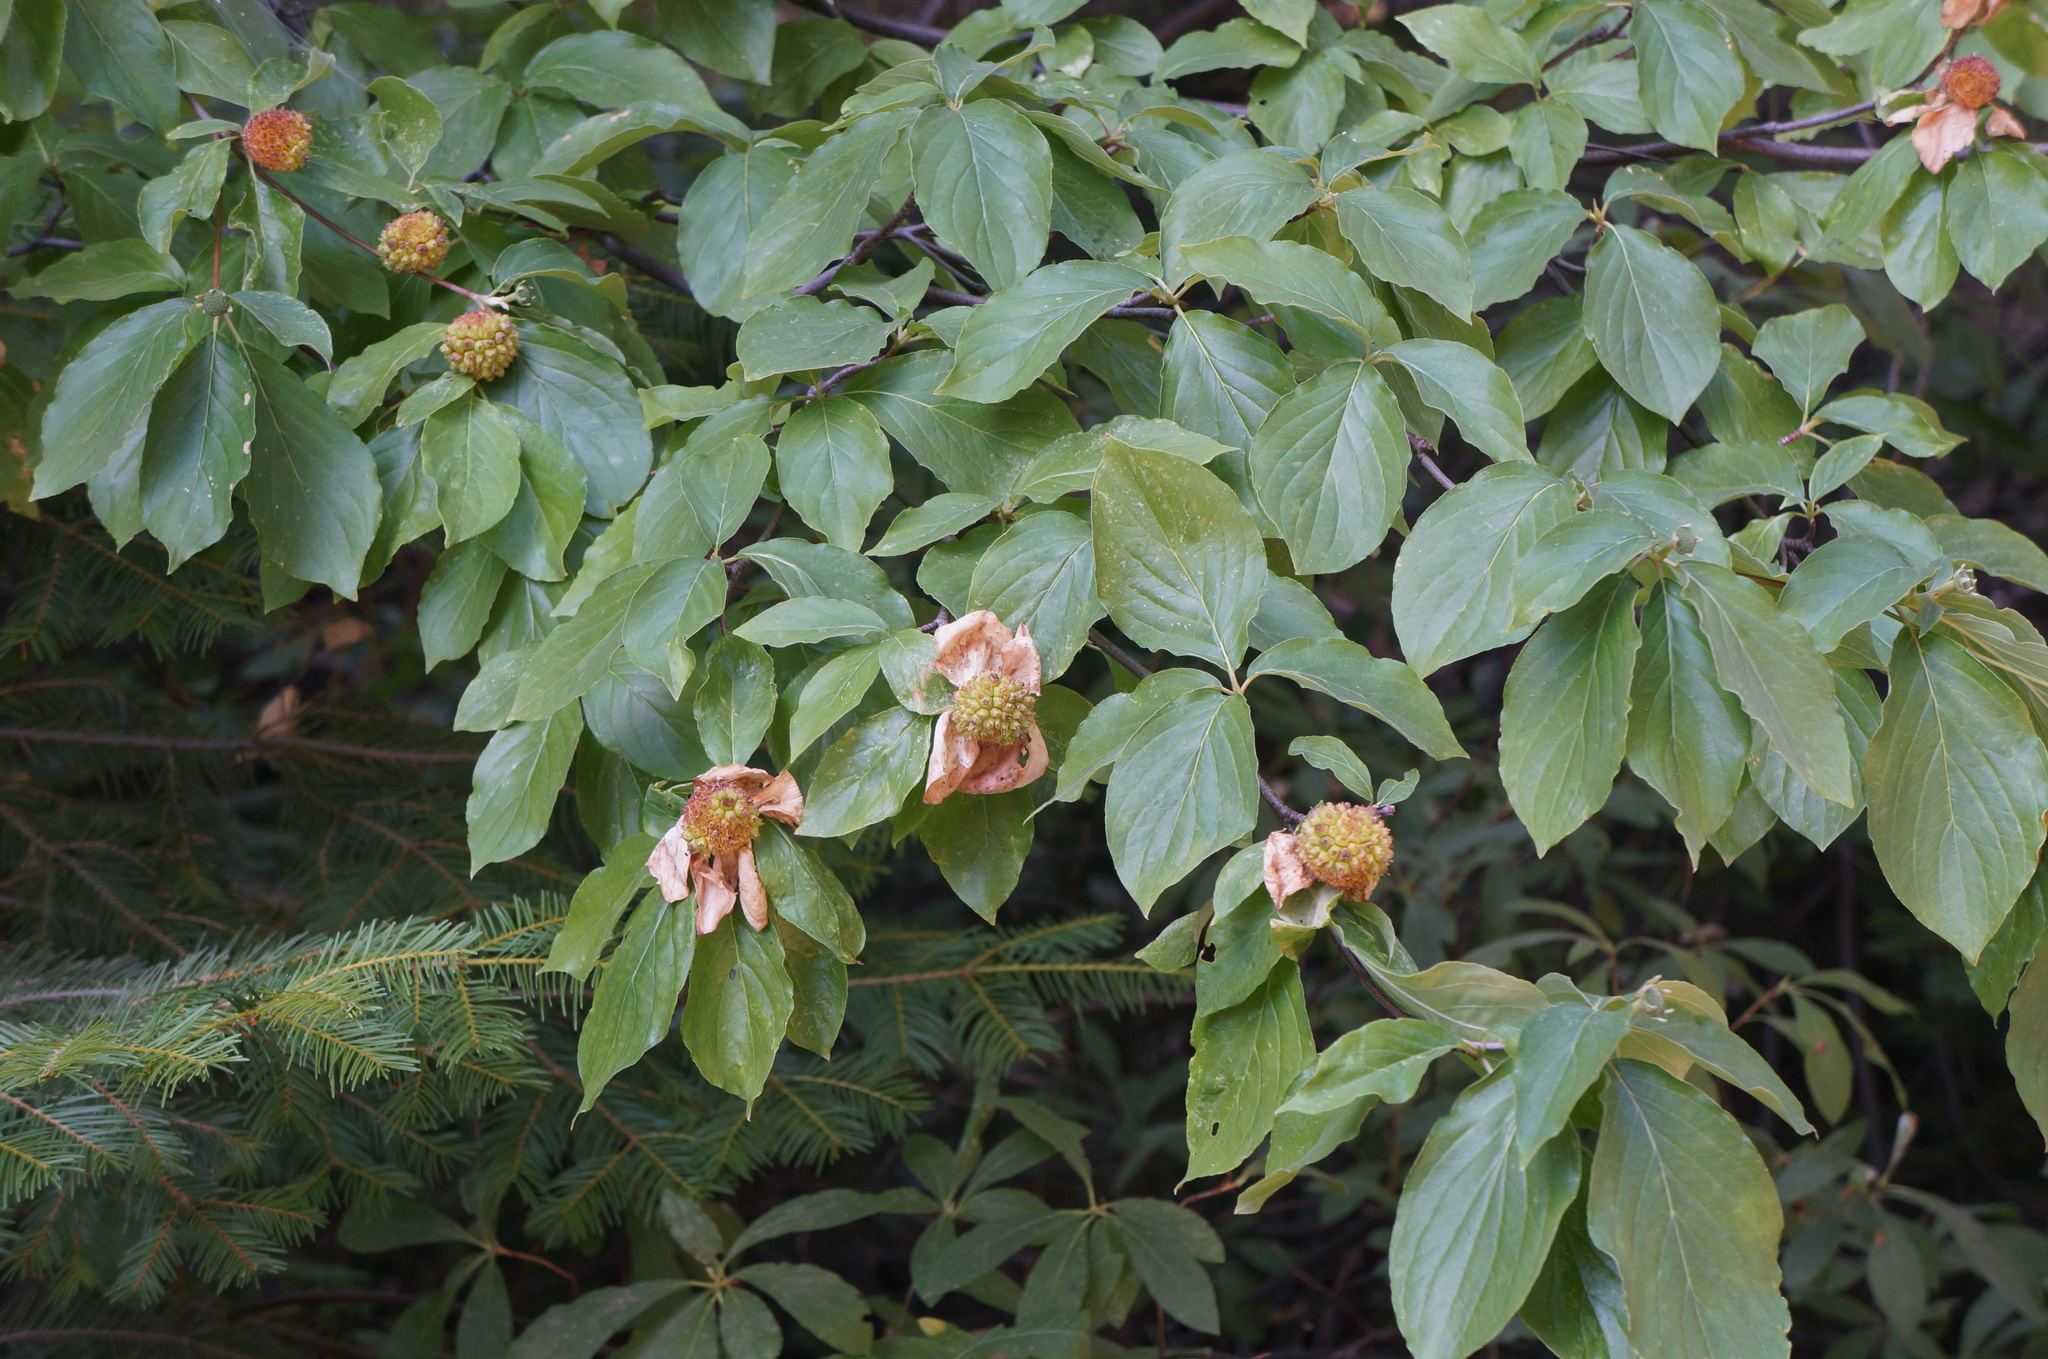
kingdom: Plantae
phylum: Tracheophyta
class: Magnoliopsida
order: Cornales
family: Cornaceae
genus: Cornus
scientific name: Cornus nuttallii
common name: Pacific dogwood
